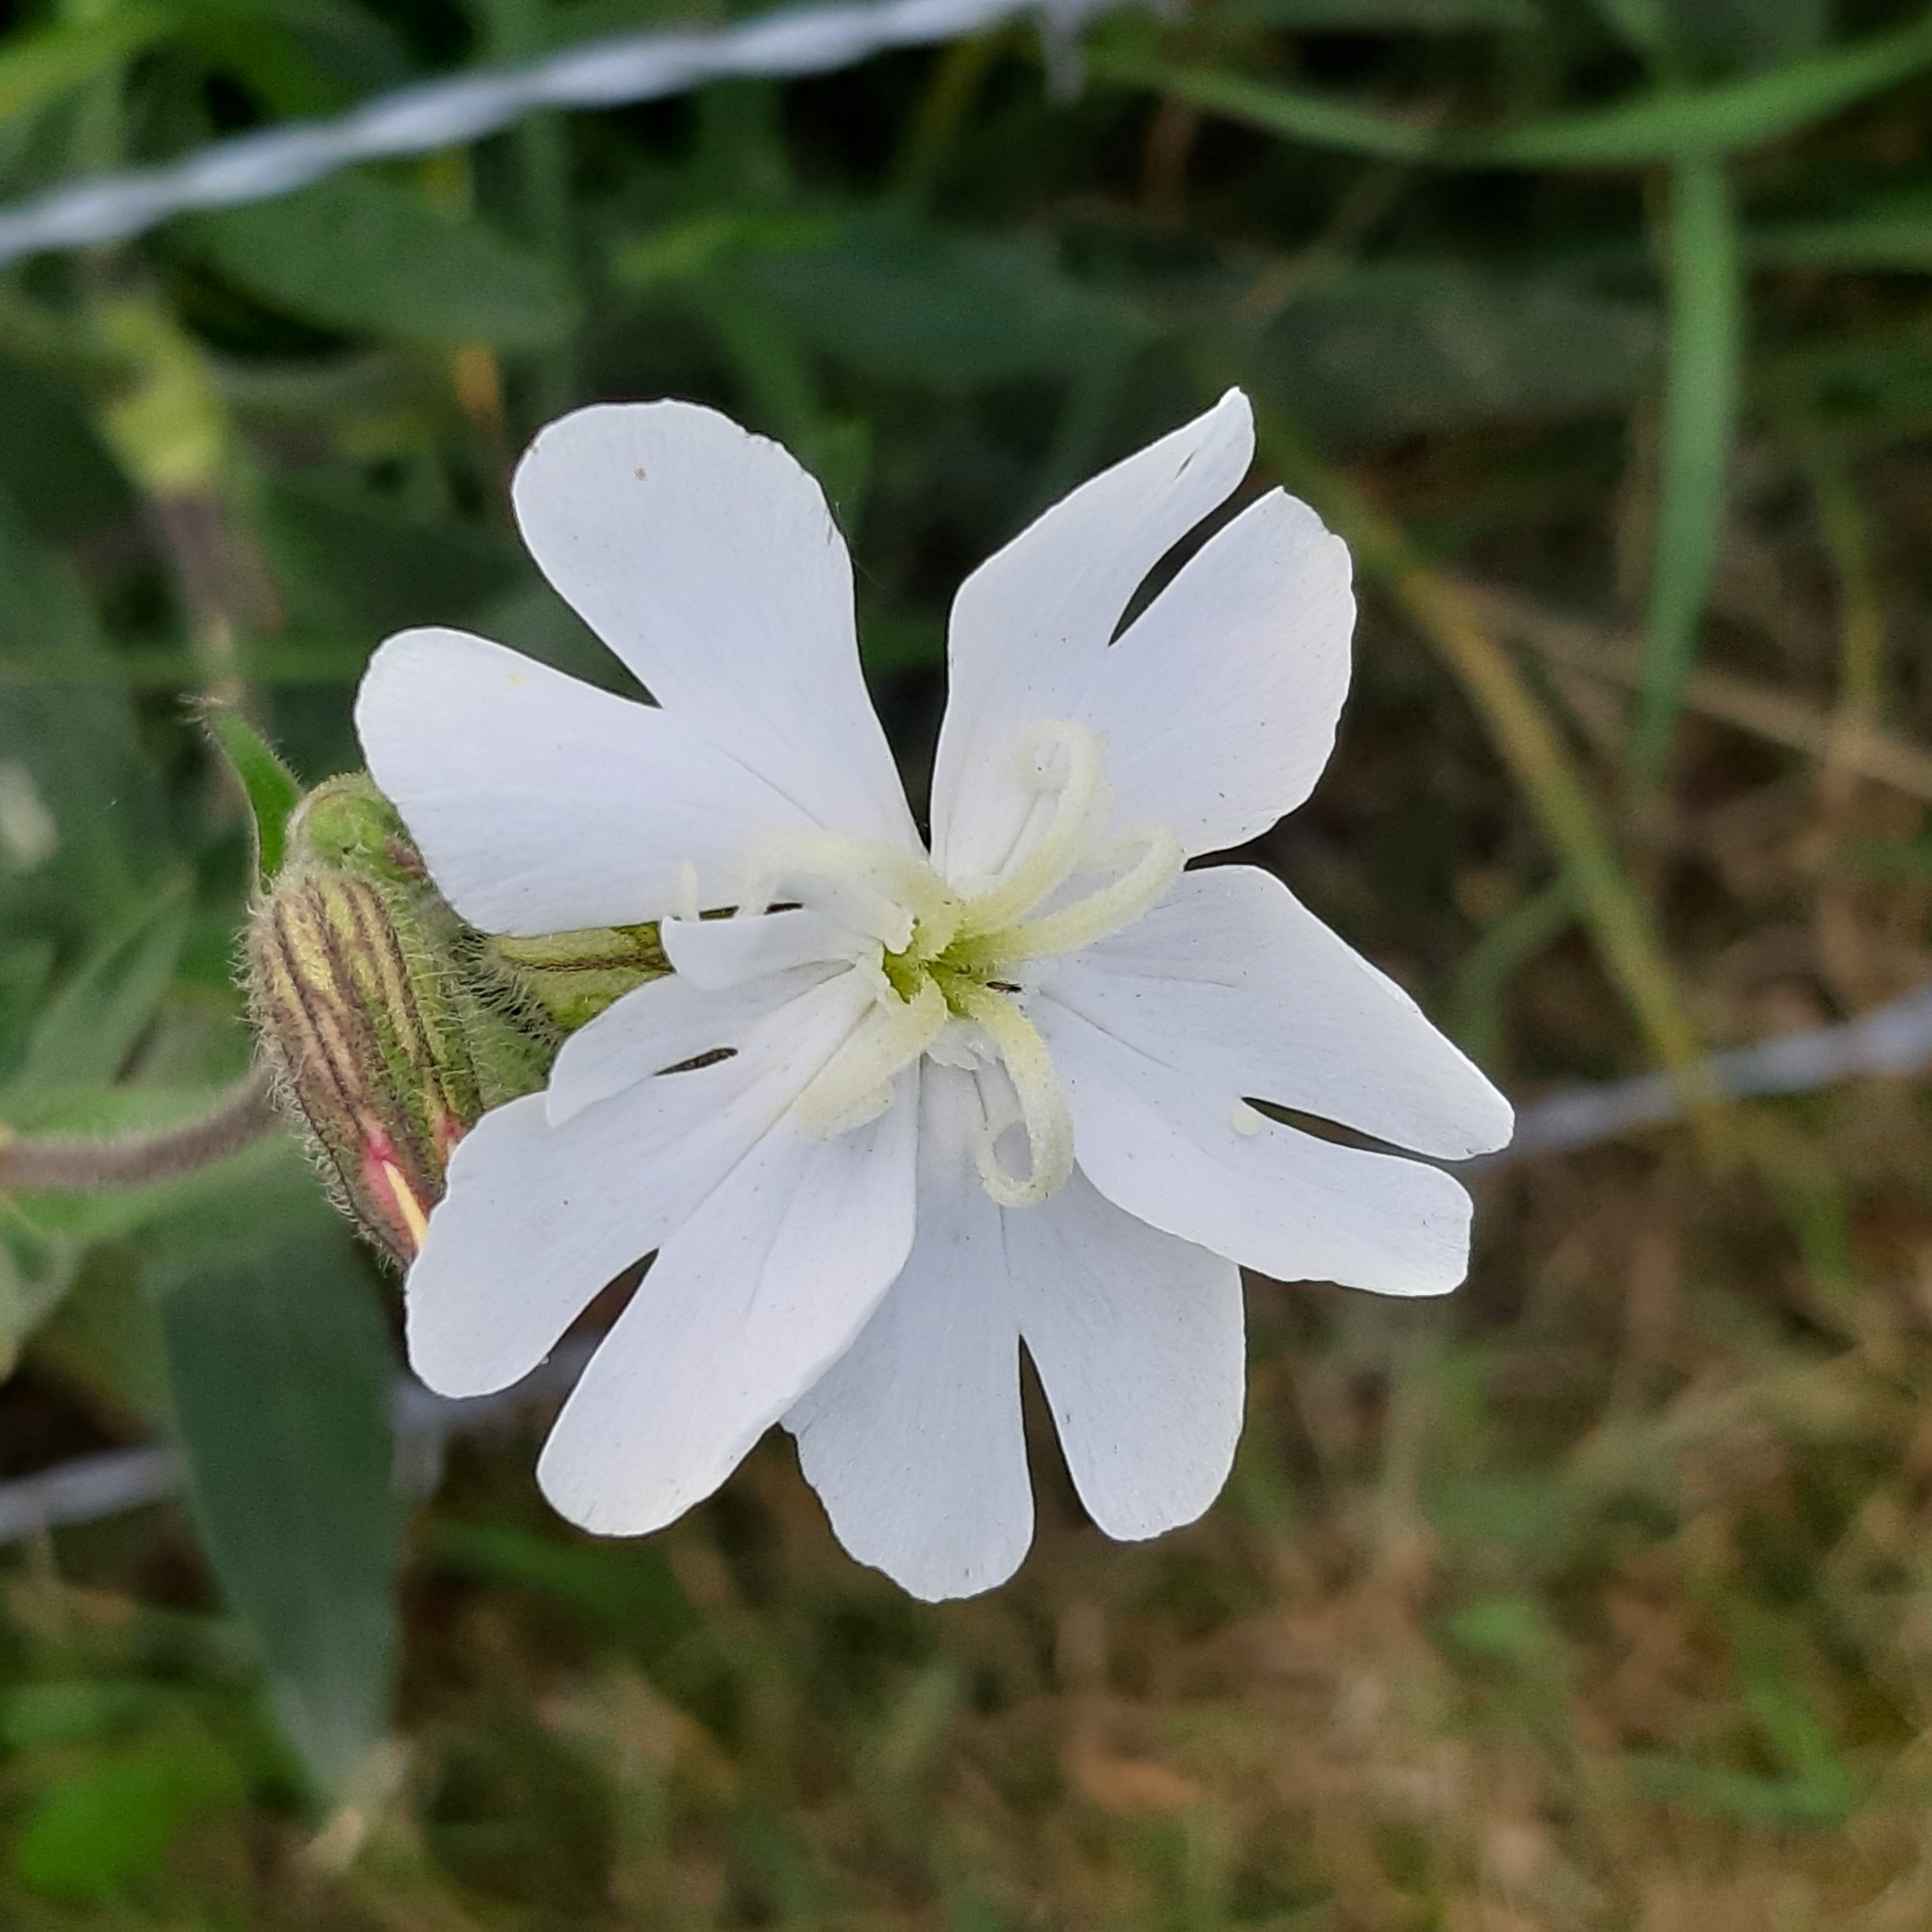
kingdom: Plantae
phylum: Tracheophyta
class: Magnoliopsida
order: Caryophyllales
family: Caryophyllaceae
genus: Silene
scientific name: Silene latifolia
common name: White campion
